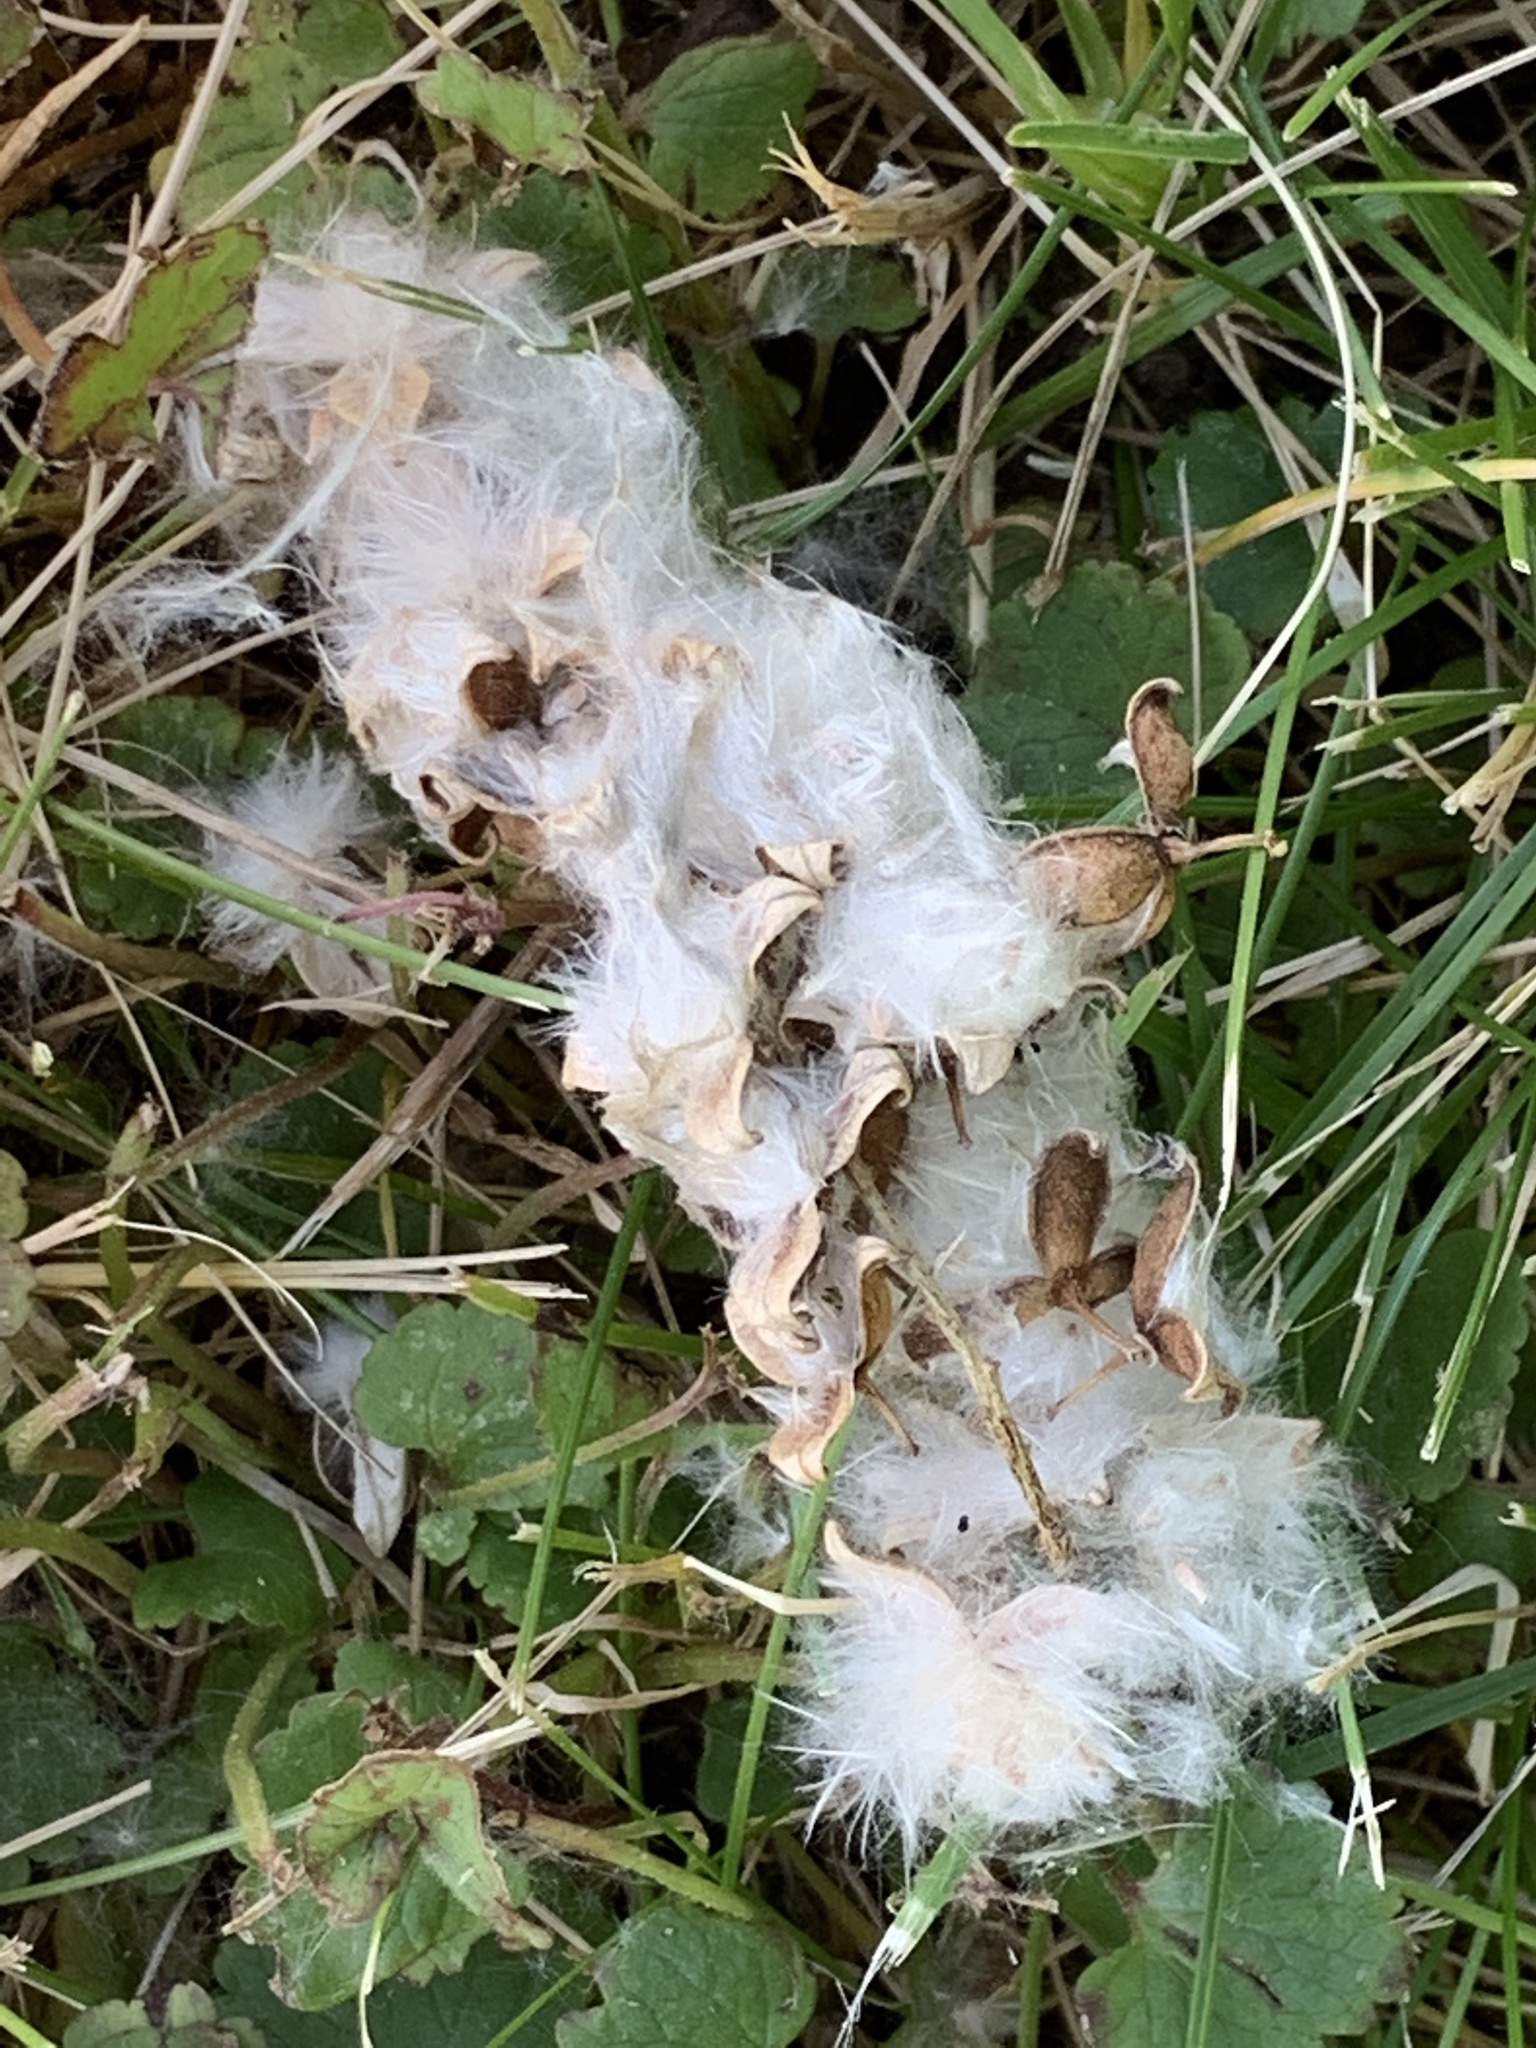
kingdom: Plantae
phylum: Tracheophyta
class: Magnoliopsida
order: Malpighiales
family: Salicaceae
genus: Populus
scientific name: Populus deltoides
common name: Eastern cottonwood
